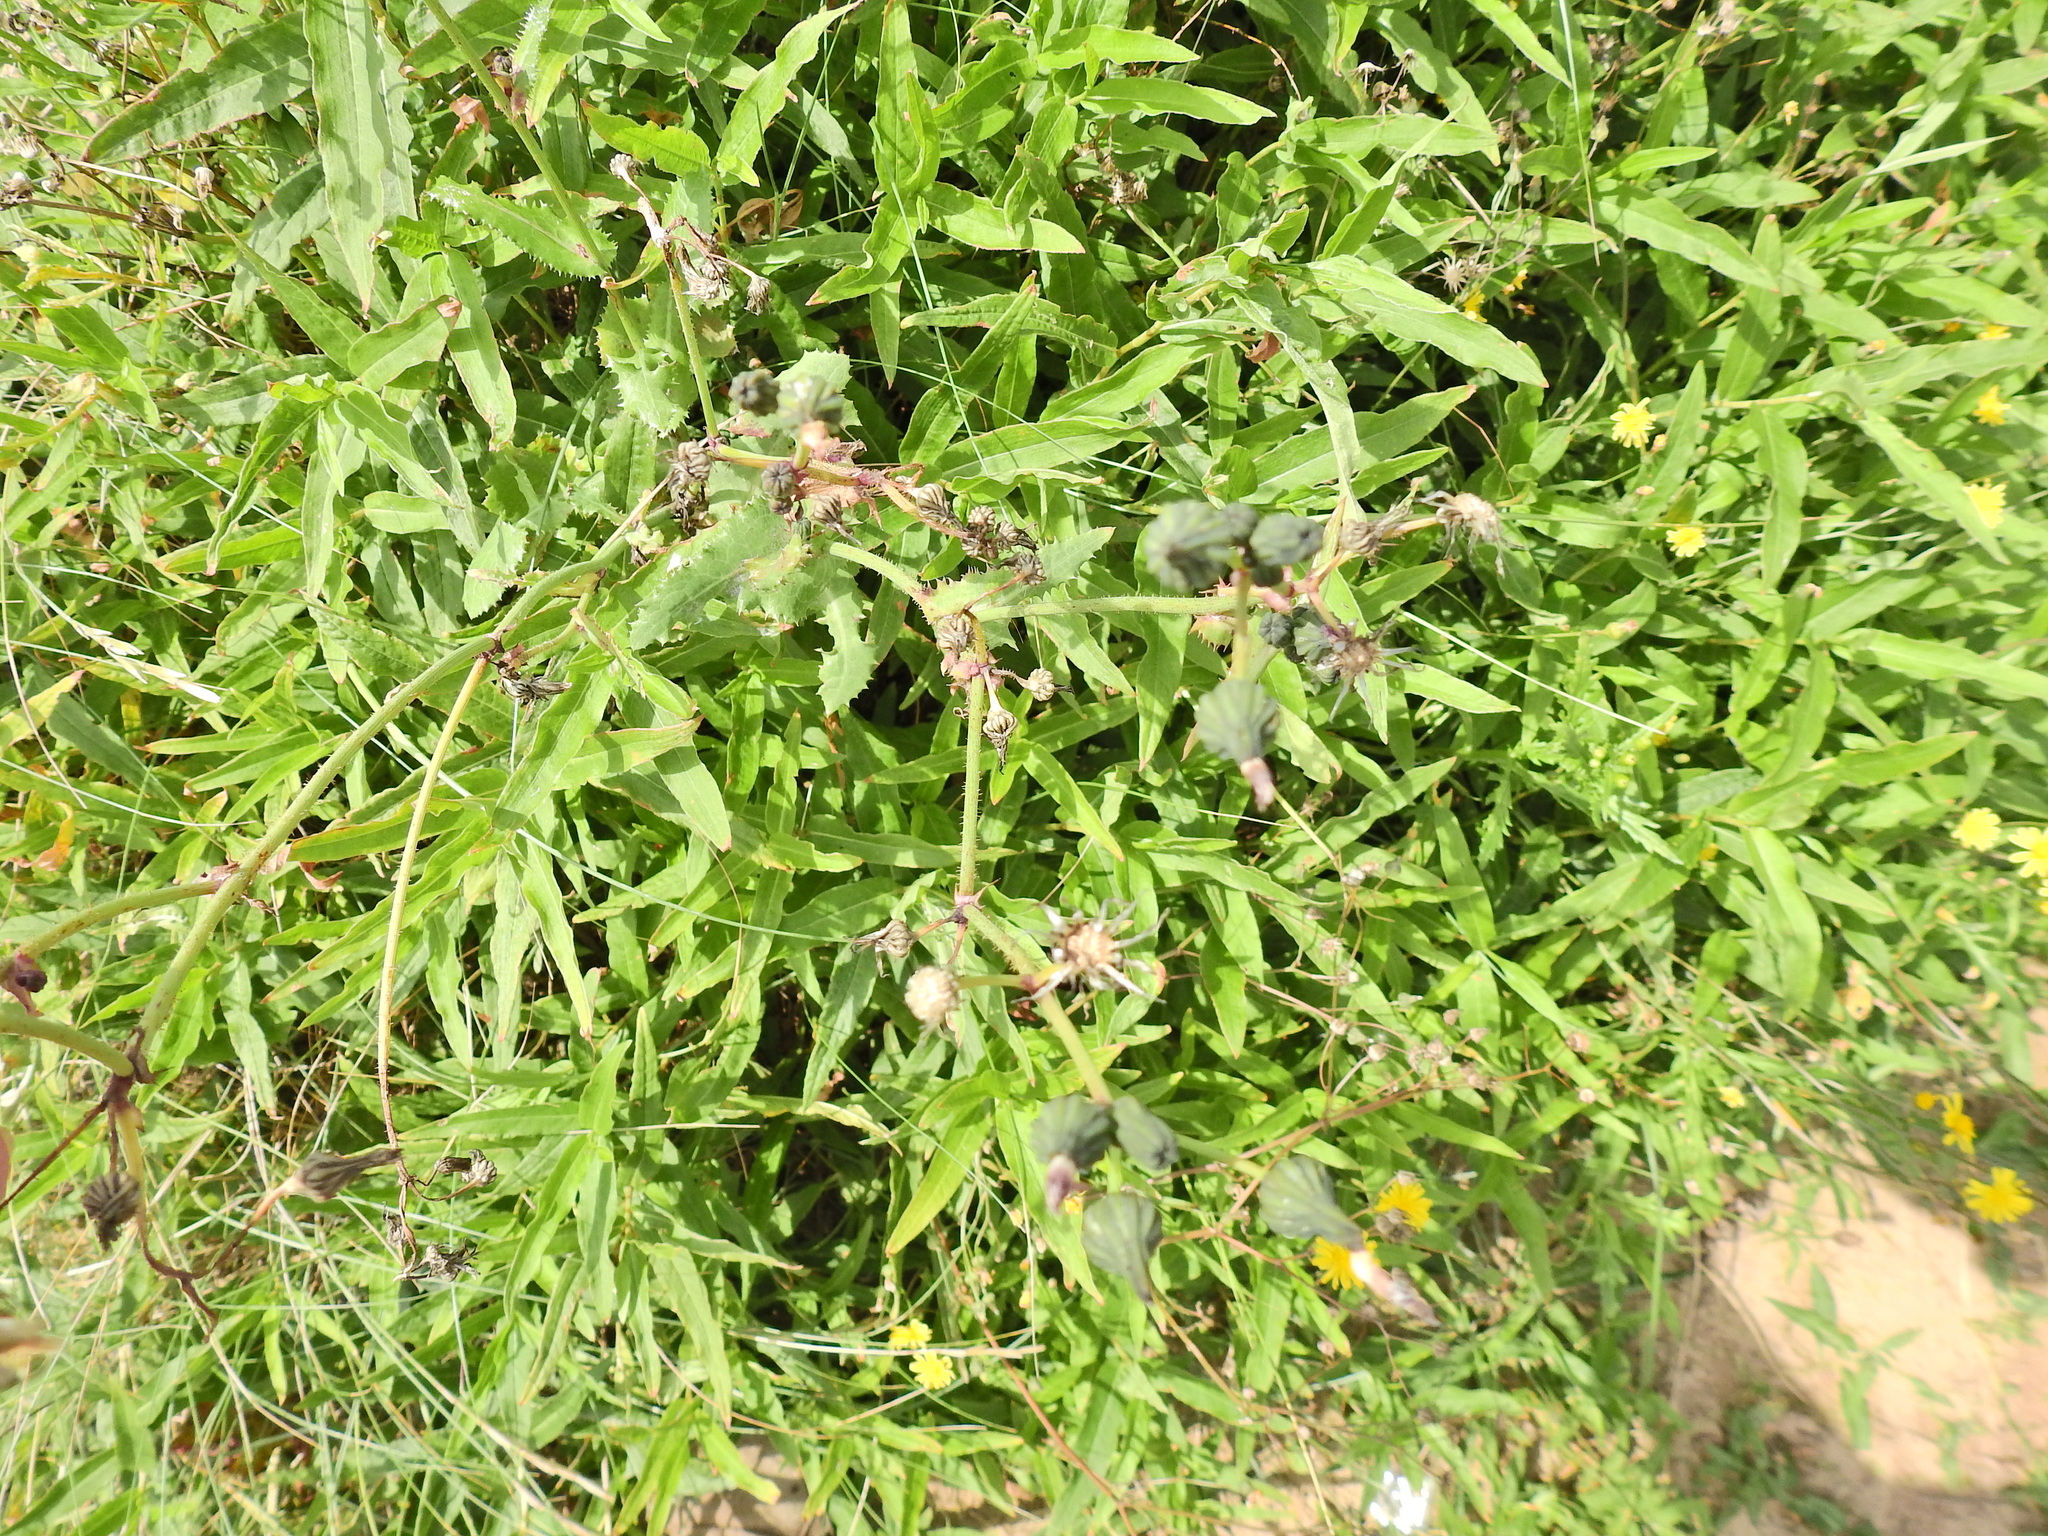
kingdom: Plantae
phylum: Tracheophyta
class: Magnoliopsida
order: Asterales
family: Asteraceae
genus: Sonchus
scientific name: Sonchus oleraceus
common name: Common sowthistle
